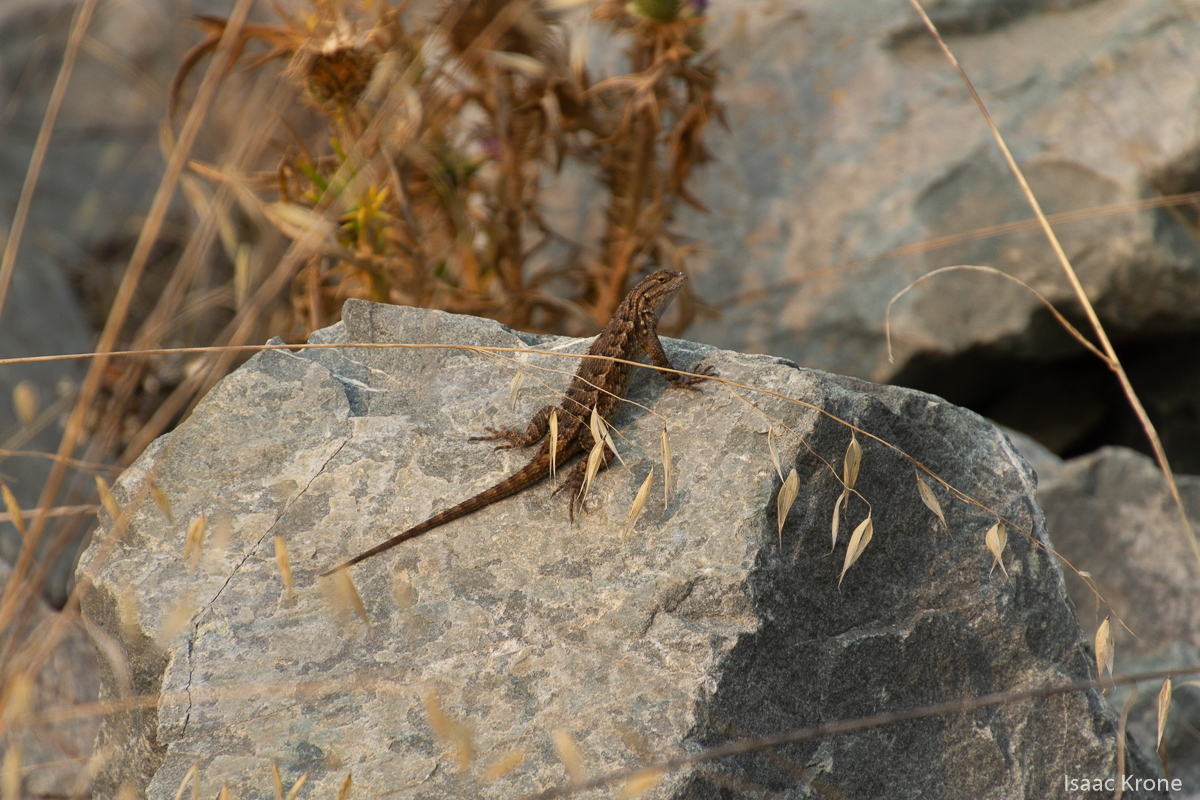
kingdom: Animalia
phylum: Chordata
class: Squamata
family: Phrynosomatidae
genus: Sceloporus
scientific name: Sceloporus occidentalis
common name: Western fence lizard
